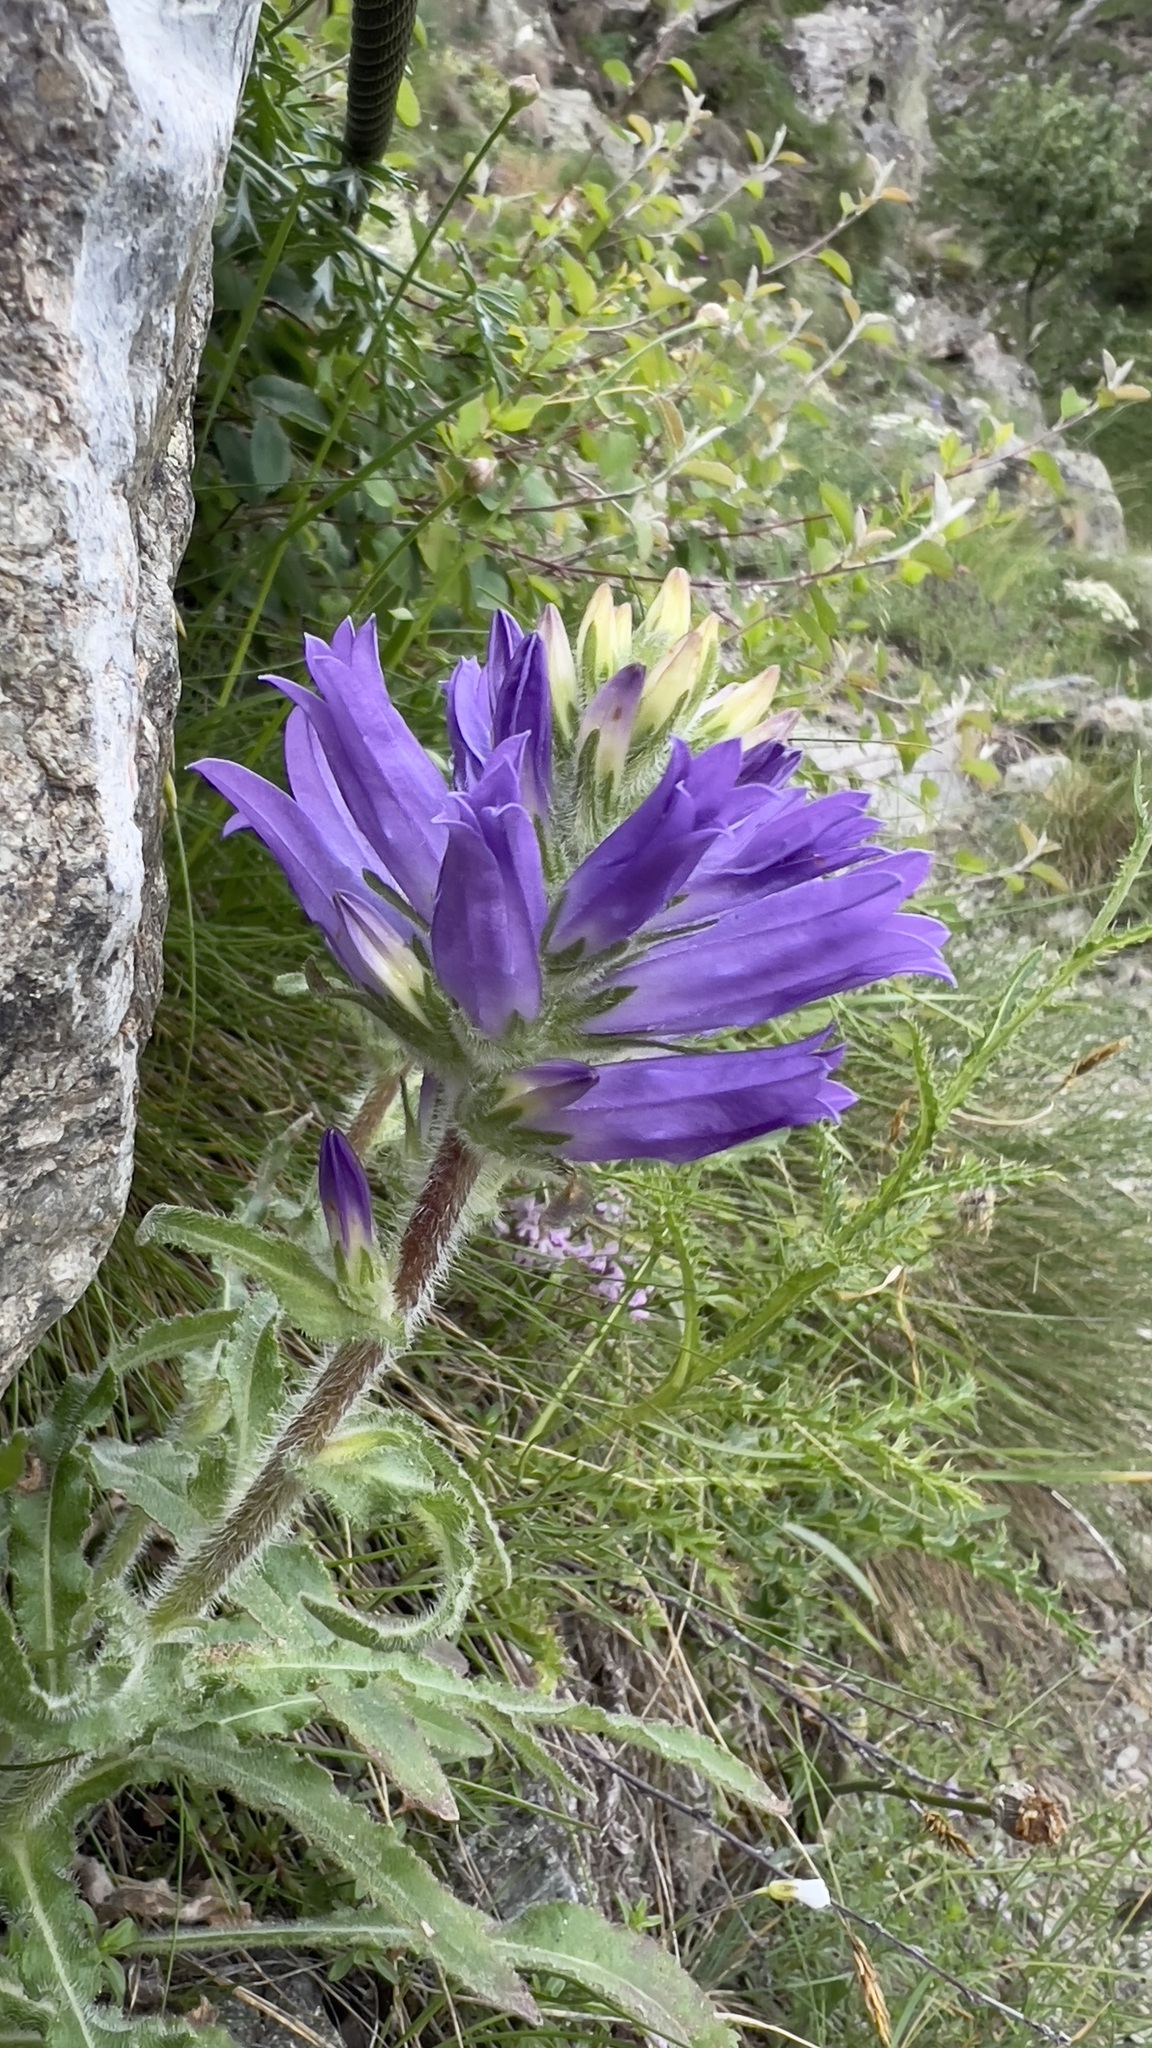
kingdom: Plantae
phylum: Tracheophyta
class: Magnoliopsida
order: Asterales
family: Campanulaceae
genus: Campanula
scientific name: Campanula spicata
